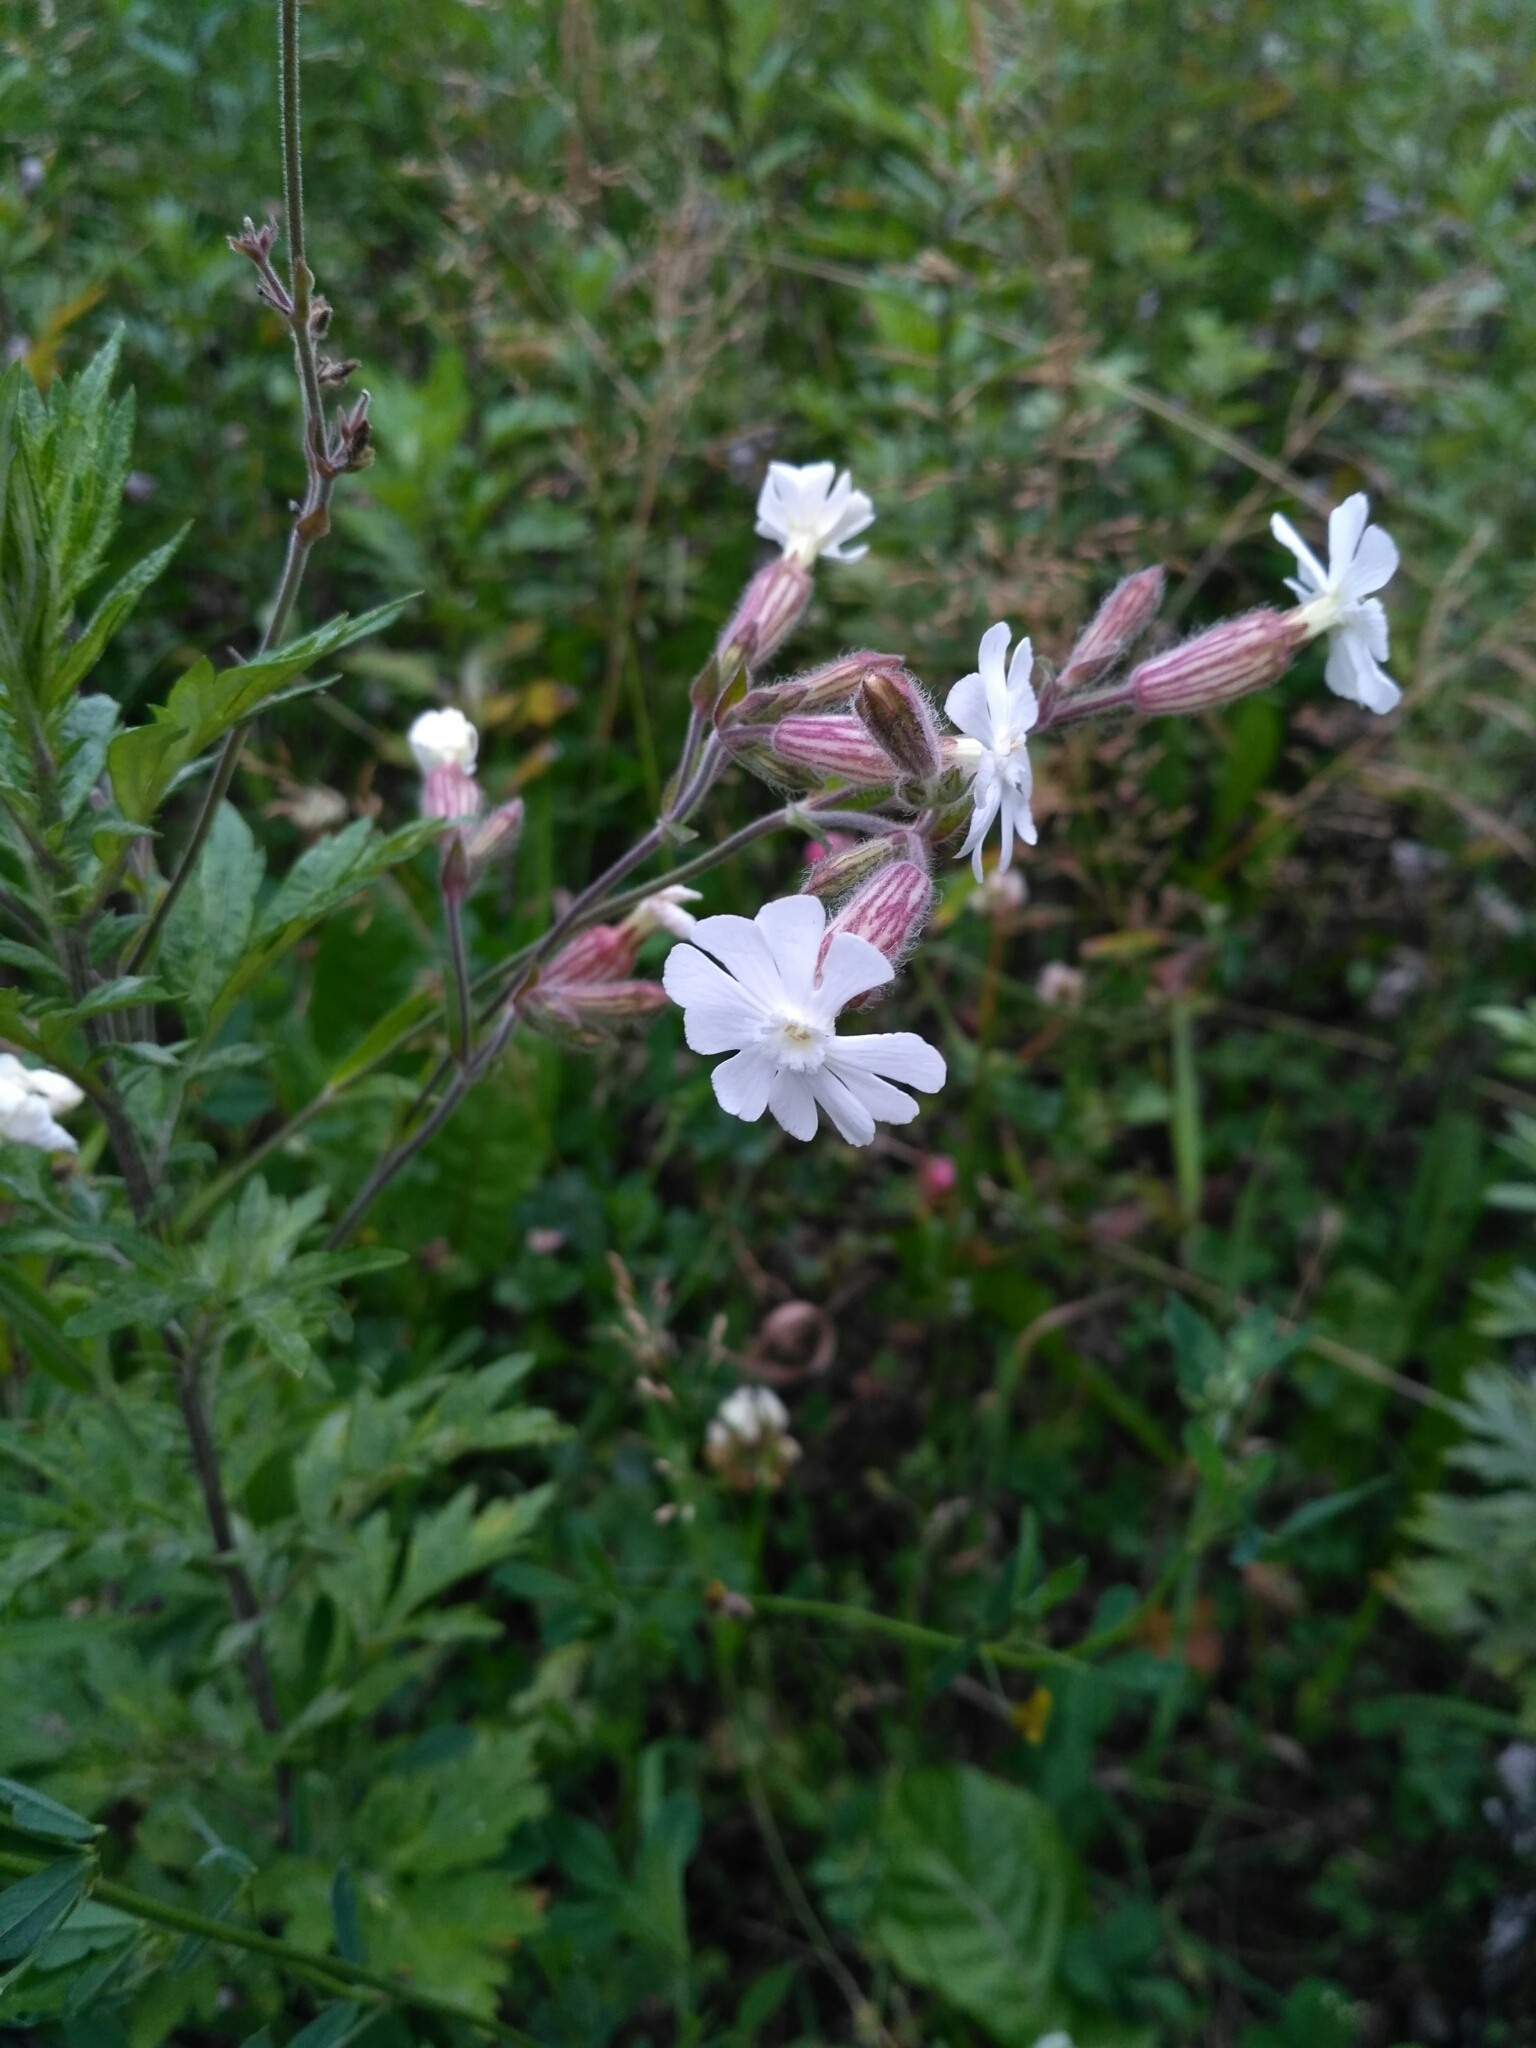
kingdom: Plantae
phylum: Tracheophyta
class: Magnoliopsida
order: Caryophyllales
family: Caryophyllaceae
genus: Silene
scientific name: Silene latifolia
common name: White campion
